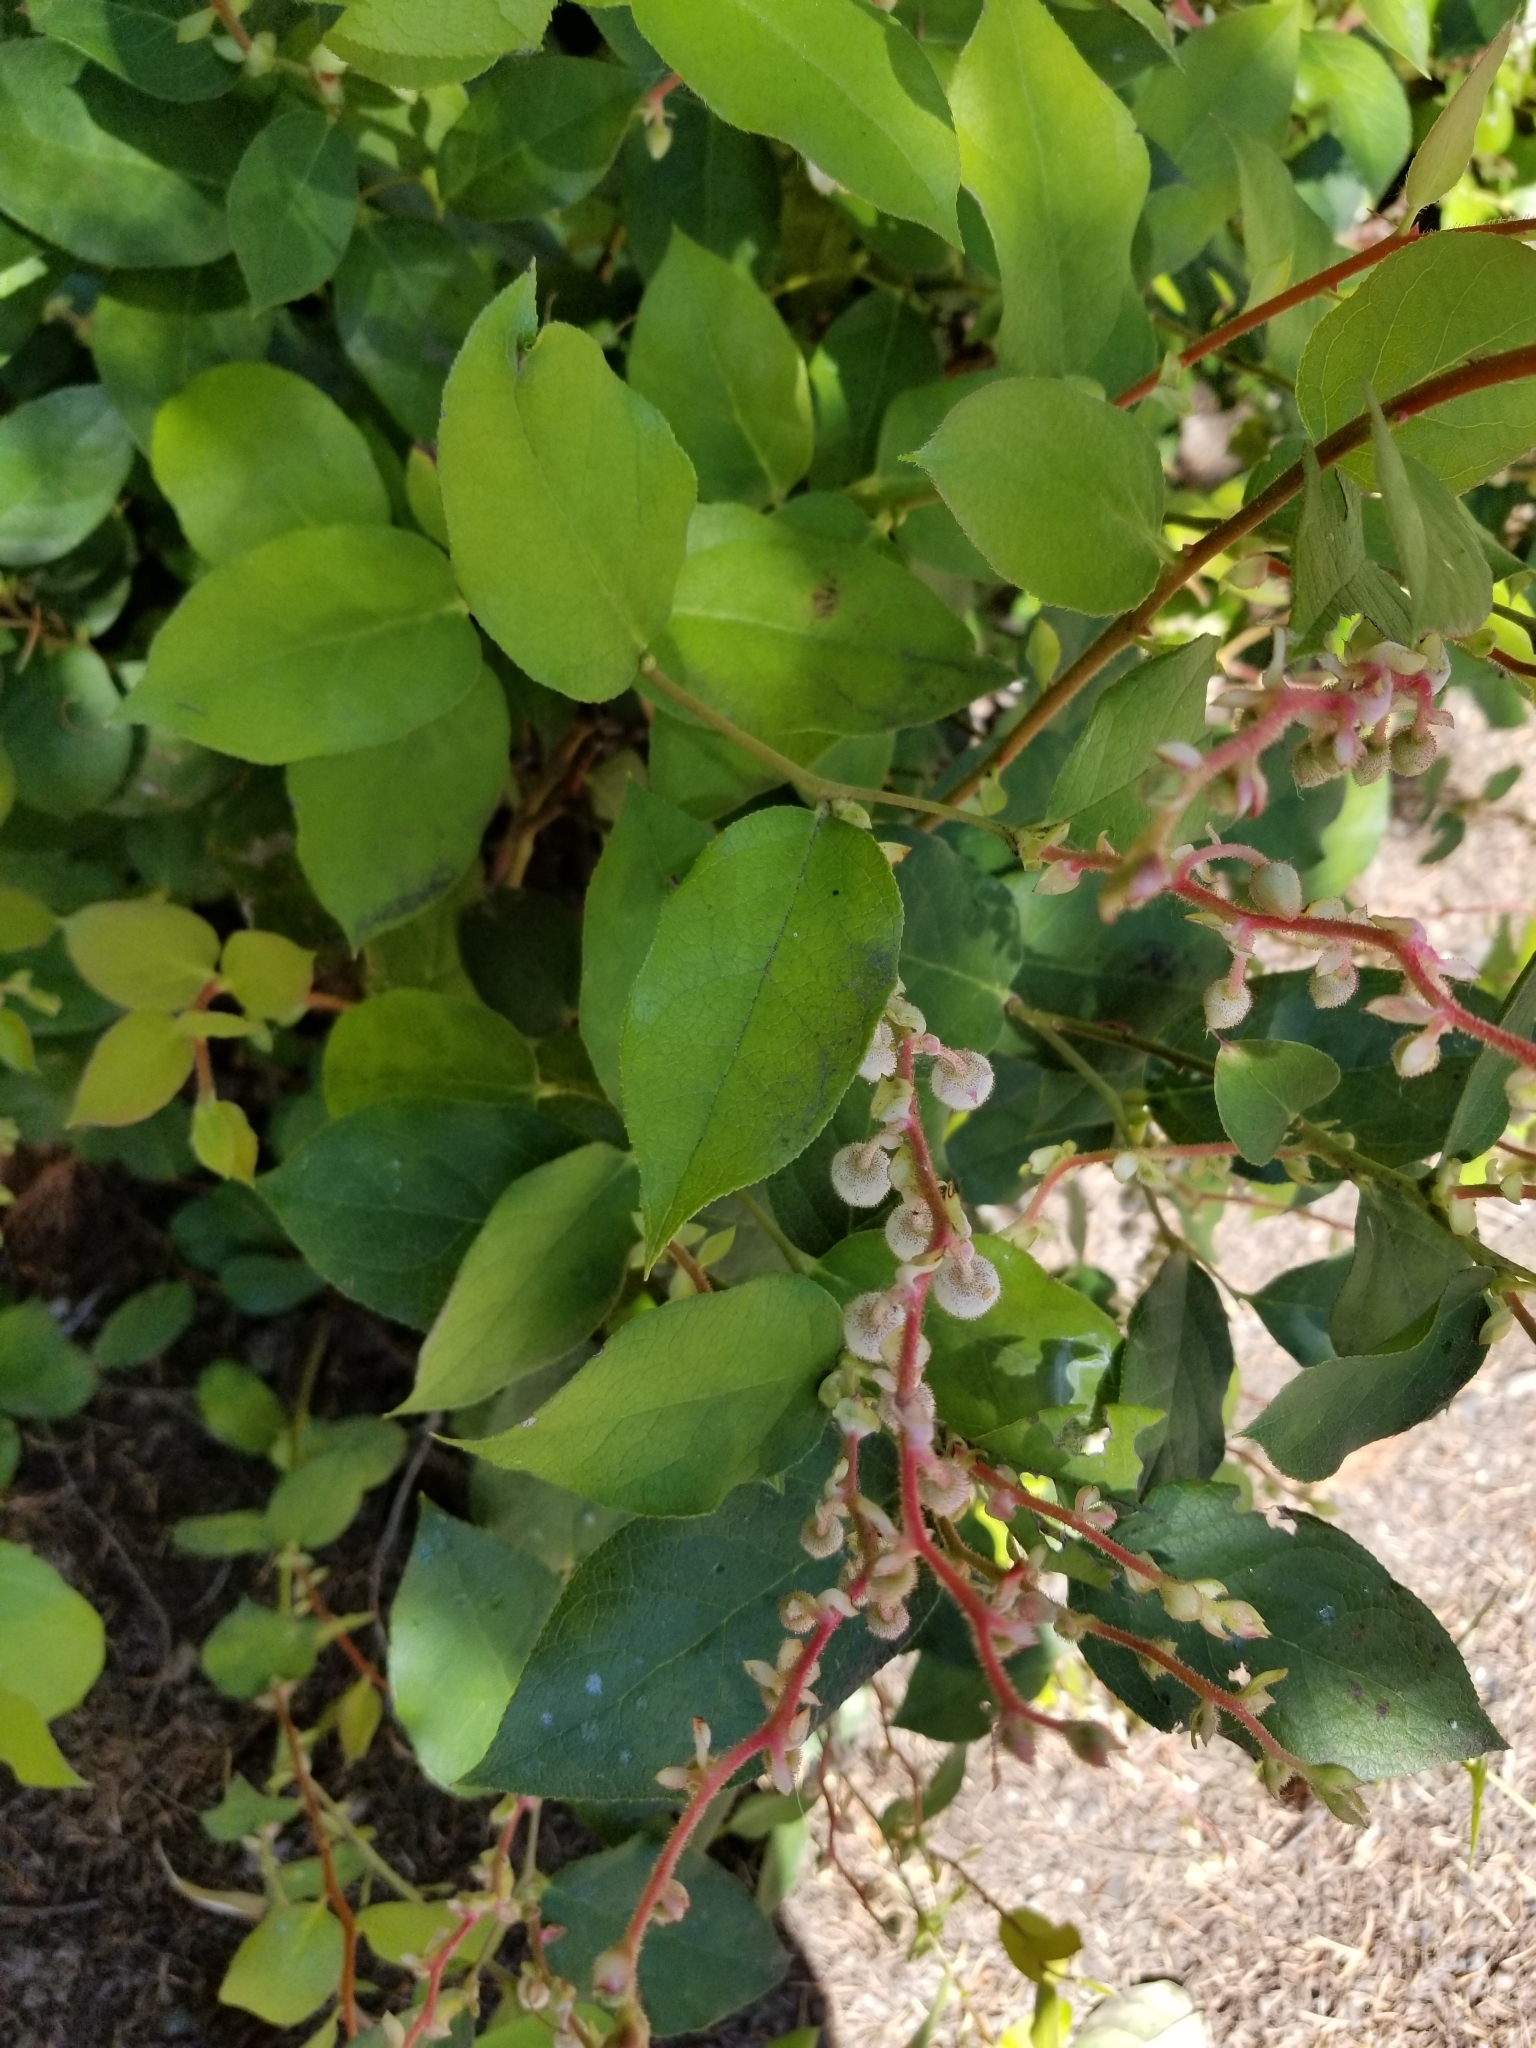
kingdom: Plantae
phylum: Tracheophyta
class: Magnoliopsida
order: Ericales
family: Ericaceae
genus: Gaultheria
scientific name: Gaultheria shallon
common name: Shallon
